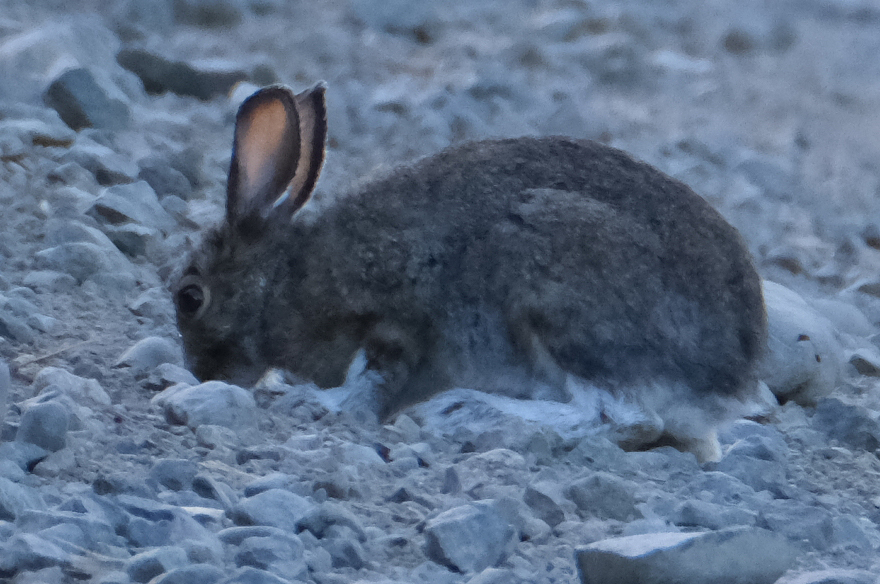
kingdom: Animalia
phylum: Chordata
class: Mammalia
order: Lagomorpha
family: Leporidae
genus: Lepus
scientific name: Lepus americanus
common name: Snowshoe hare
